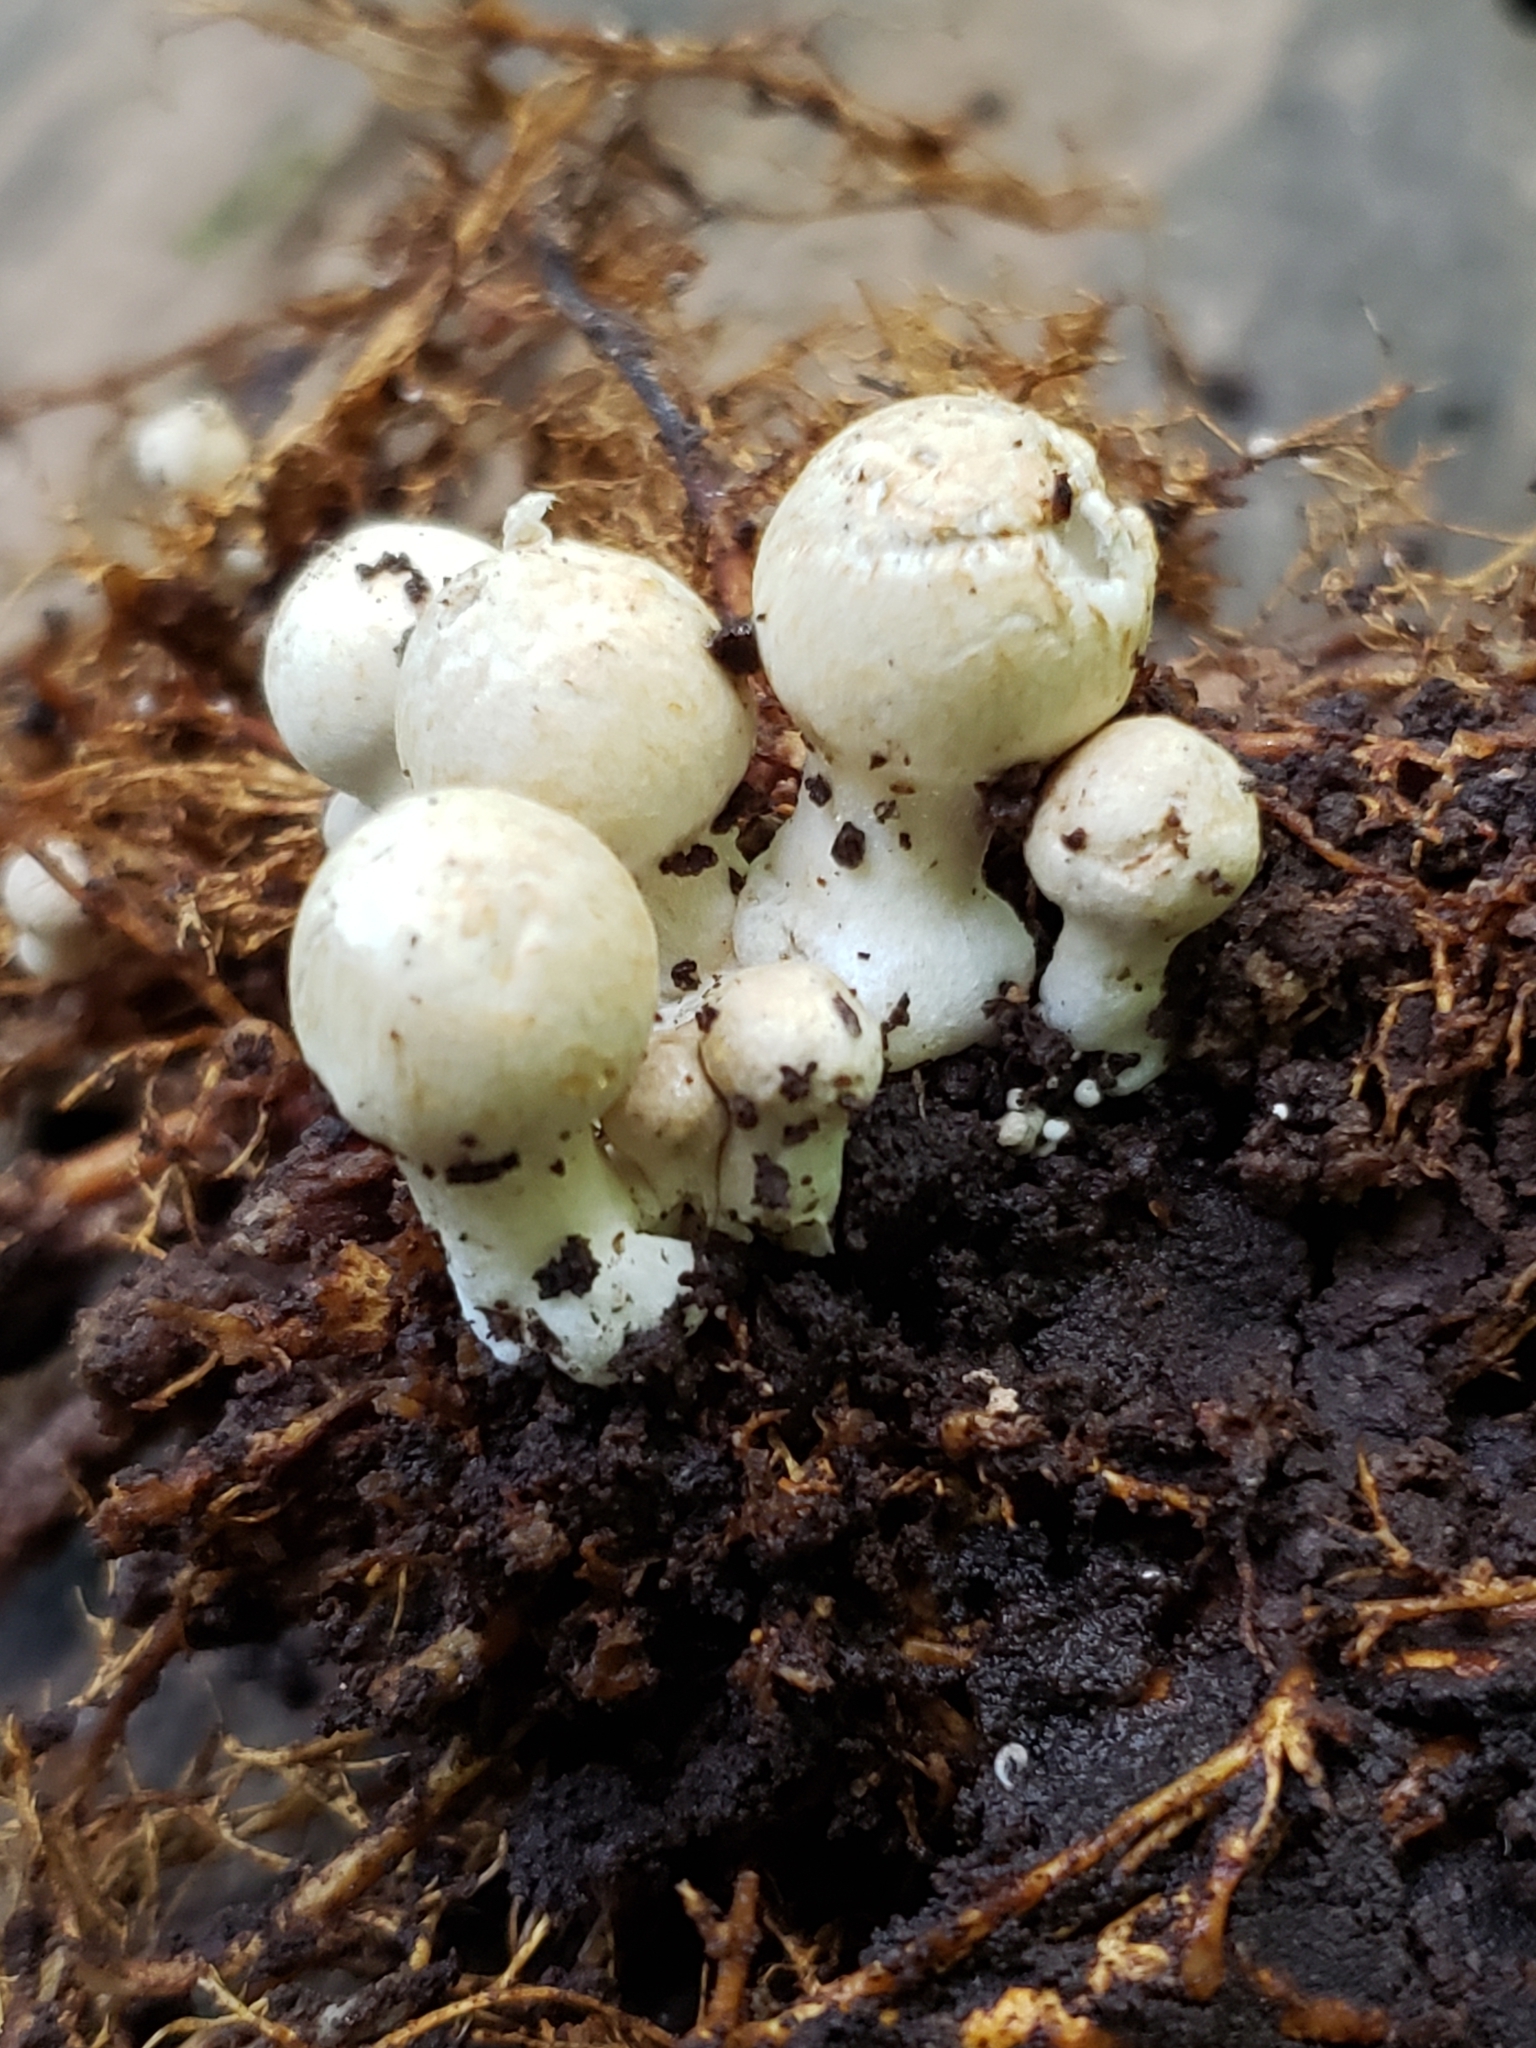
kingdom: Fungi
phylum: Basidiomycota
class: Agaricomycetes
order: Agaricales
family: Psathyrellaceae
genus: Coprinopsis
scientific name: Coprinopsis variegata
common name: Scaly ink cap
